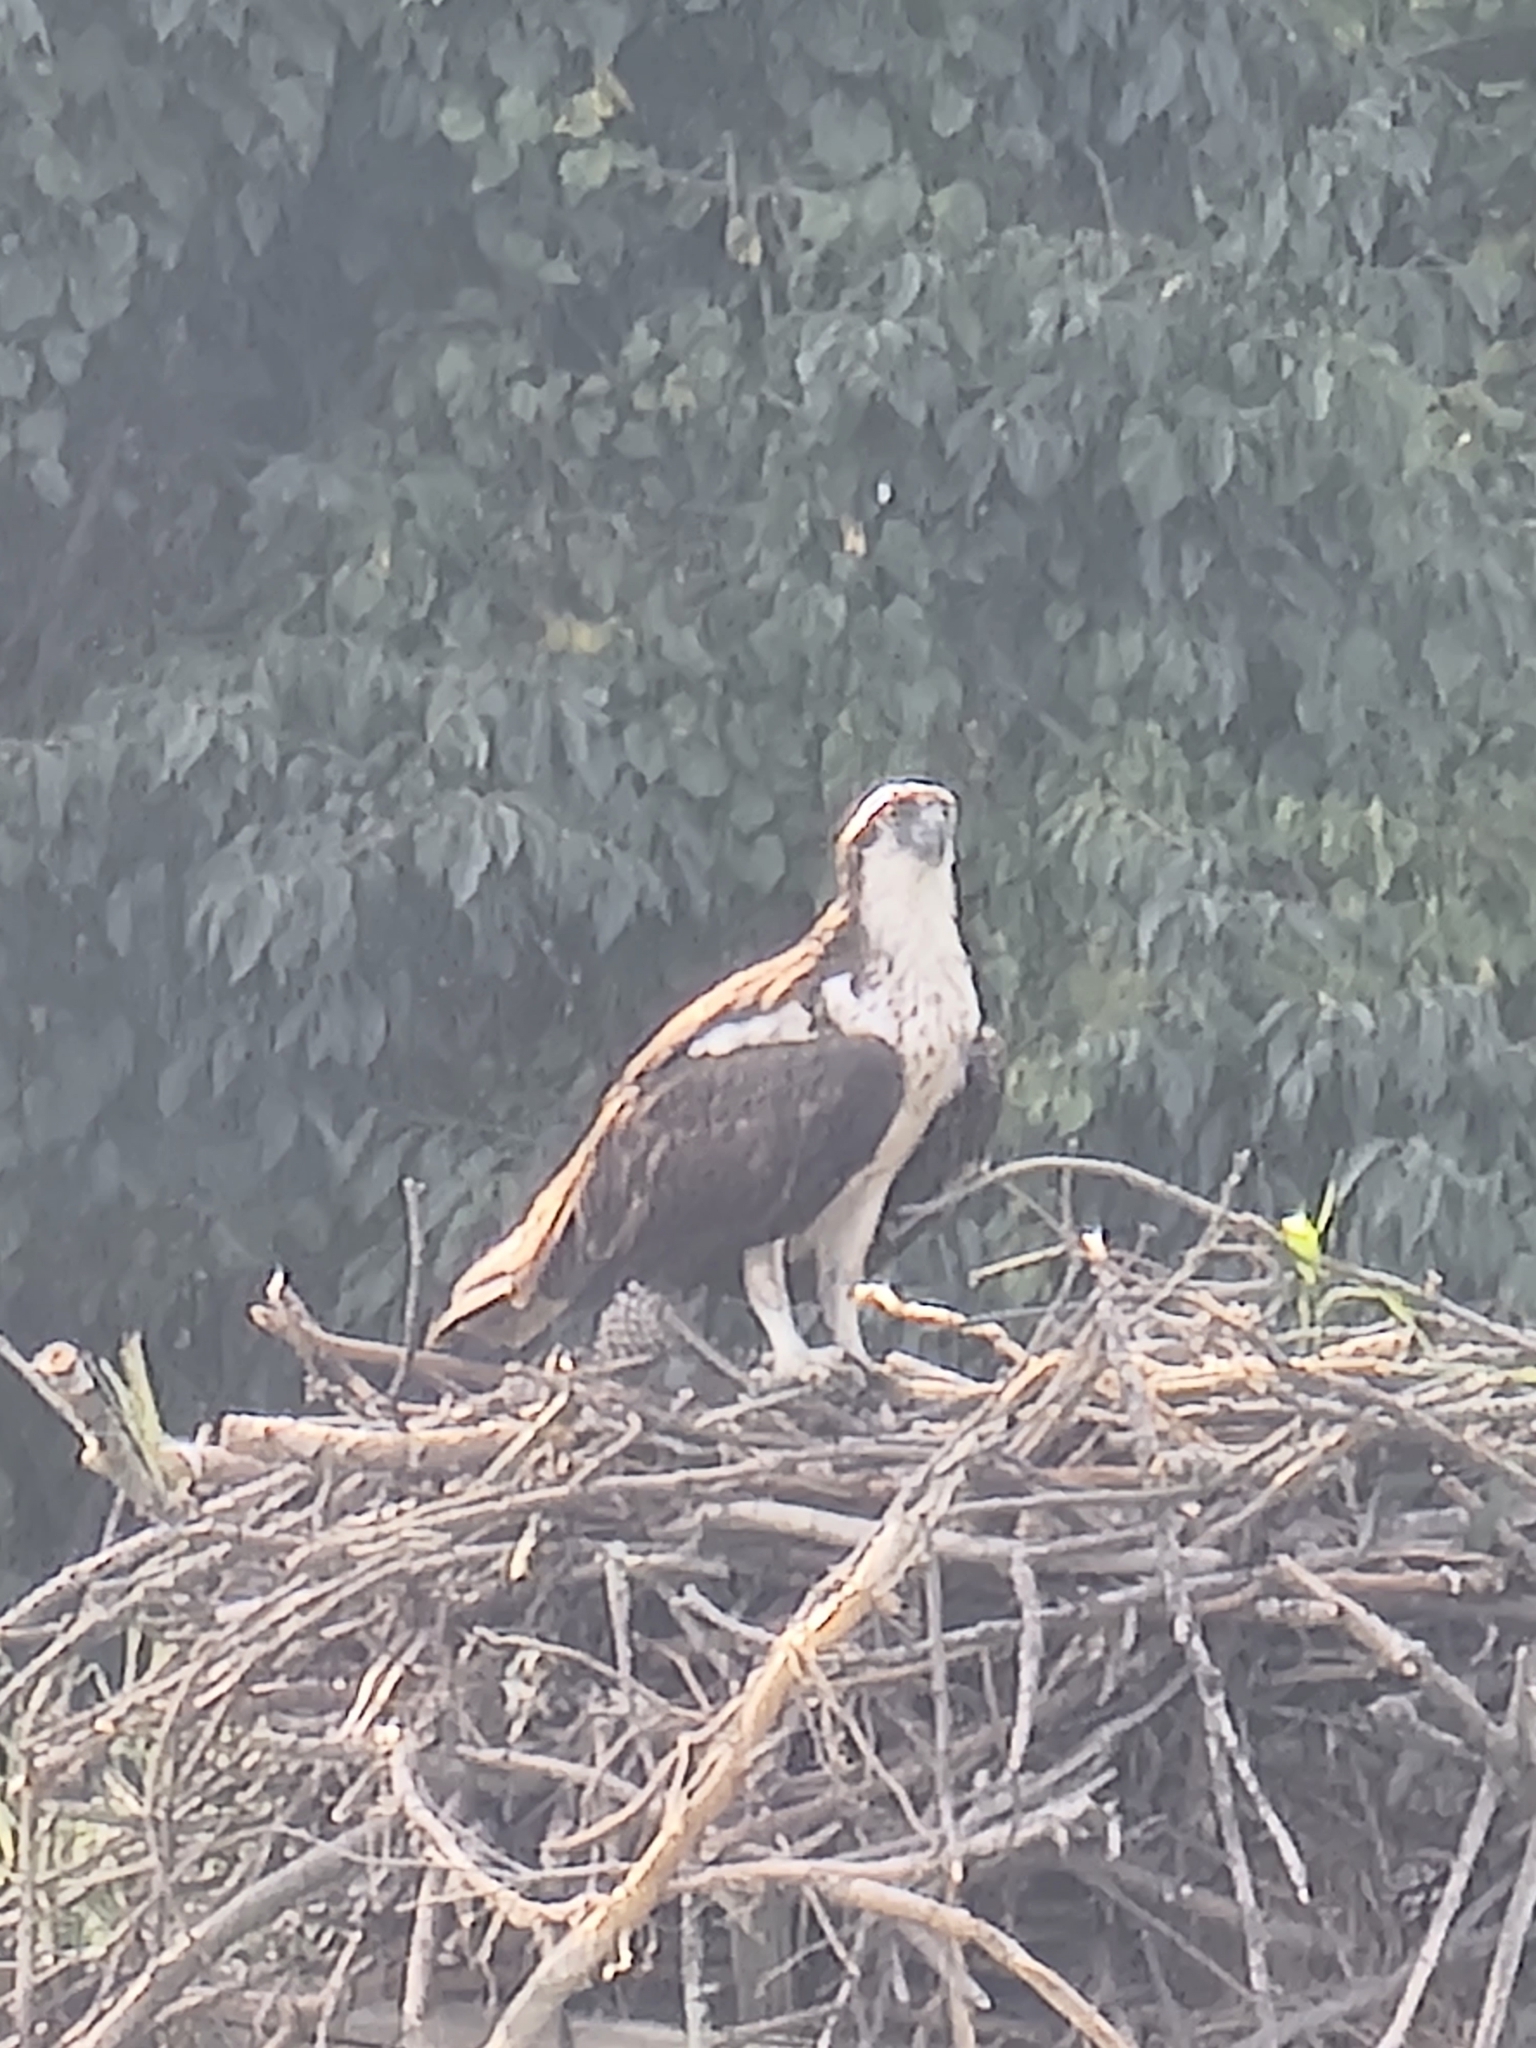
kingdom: Animalia
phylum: Chordata
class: Aves
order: Accipitriformes
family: Pandionidae
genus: Pandion
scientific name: Pandion haliaetus
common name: Osprey
